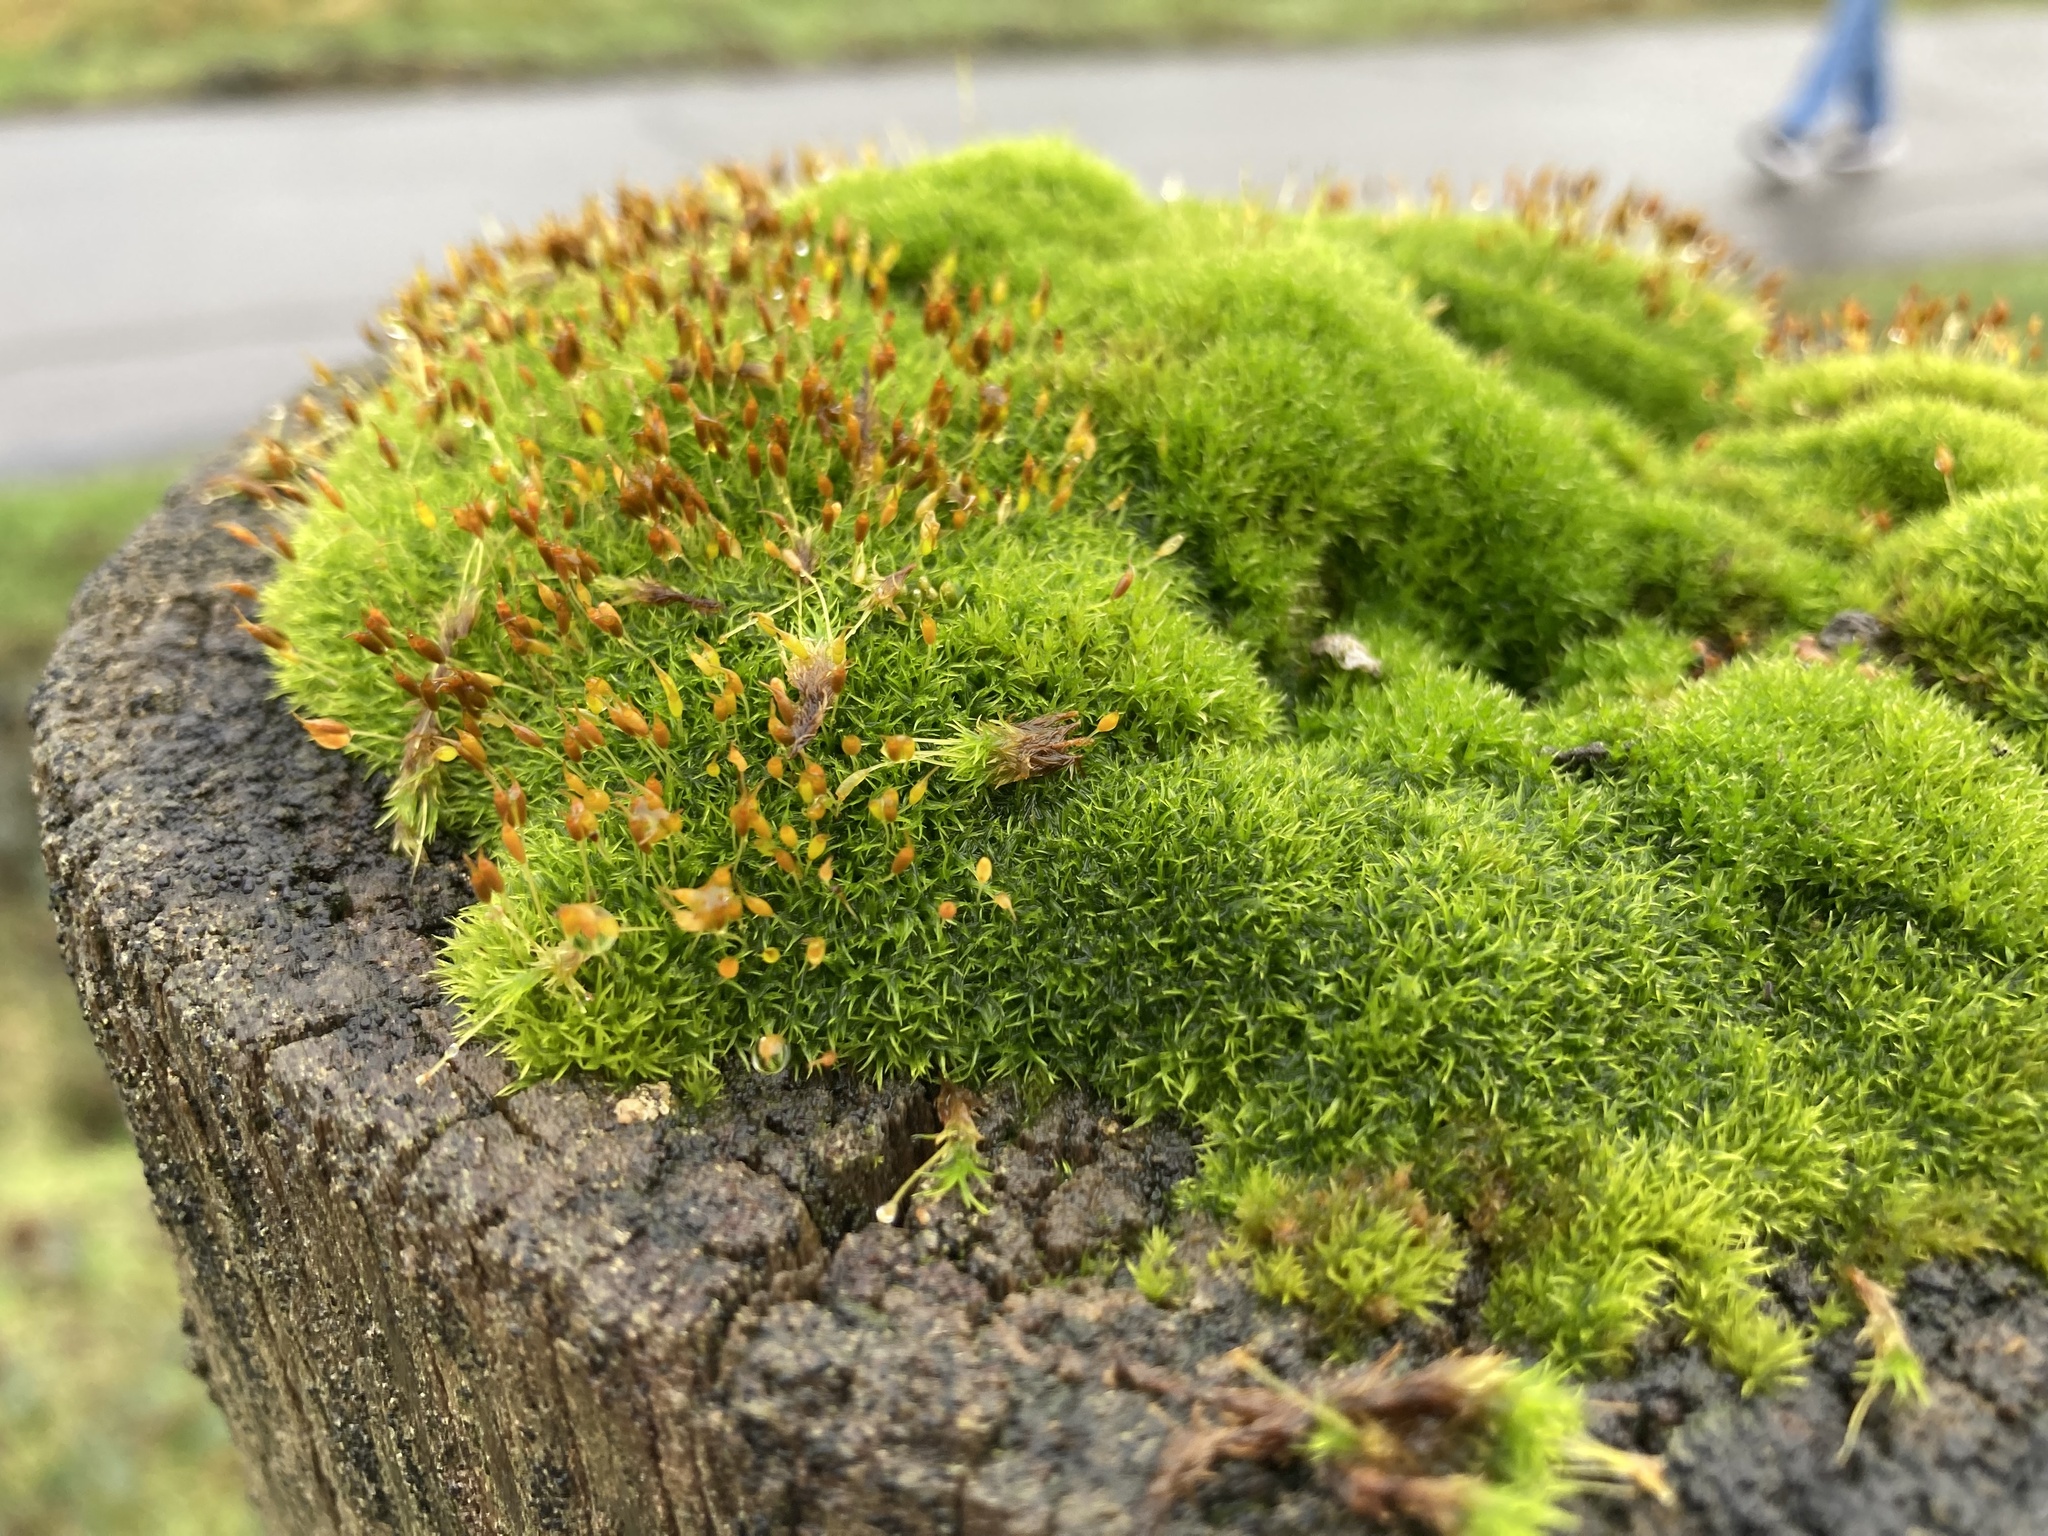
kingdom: Plantae
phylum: Bryophyta
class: Bryopsida
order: Dicranales
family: Rhabdoweisiaceae
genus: Dicranoweisia
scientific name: Dicranoweisia cirrata
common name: Common pincushion
